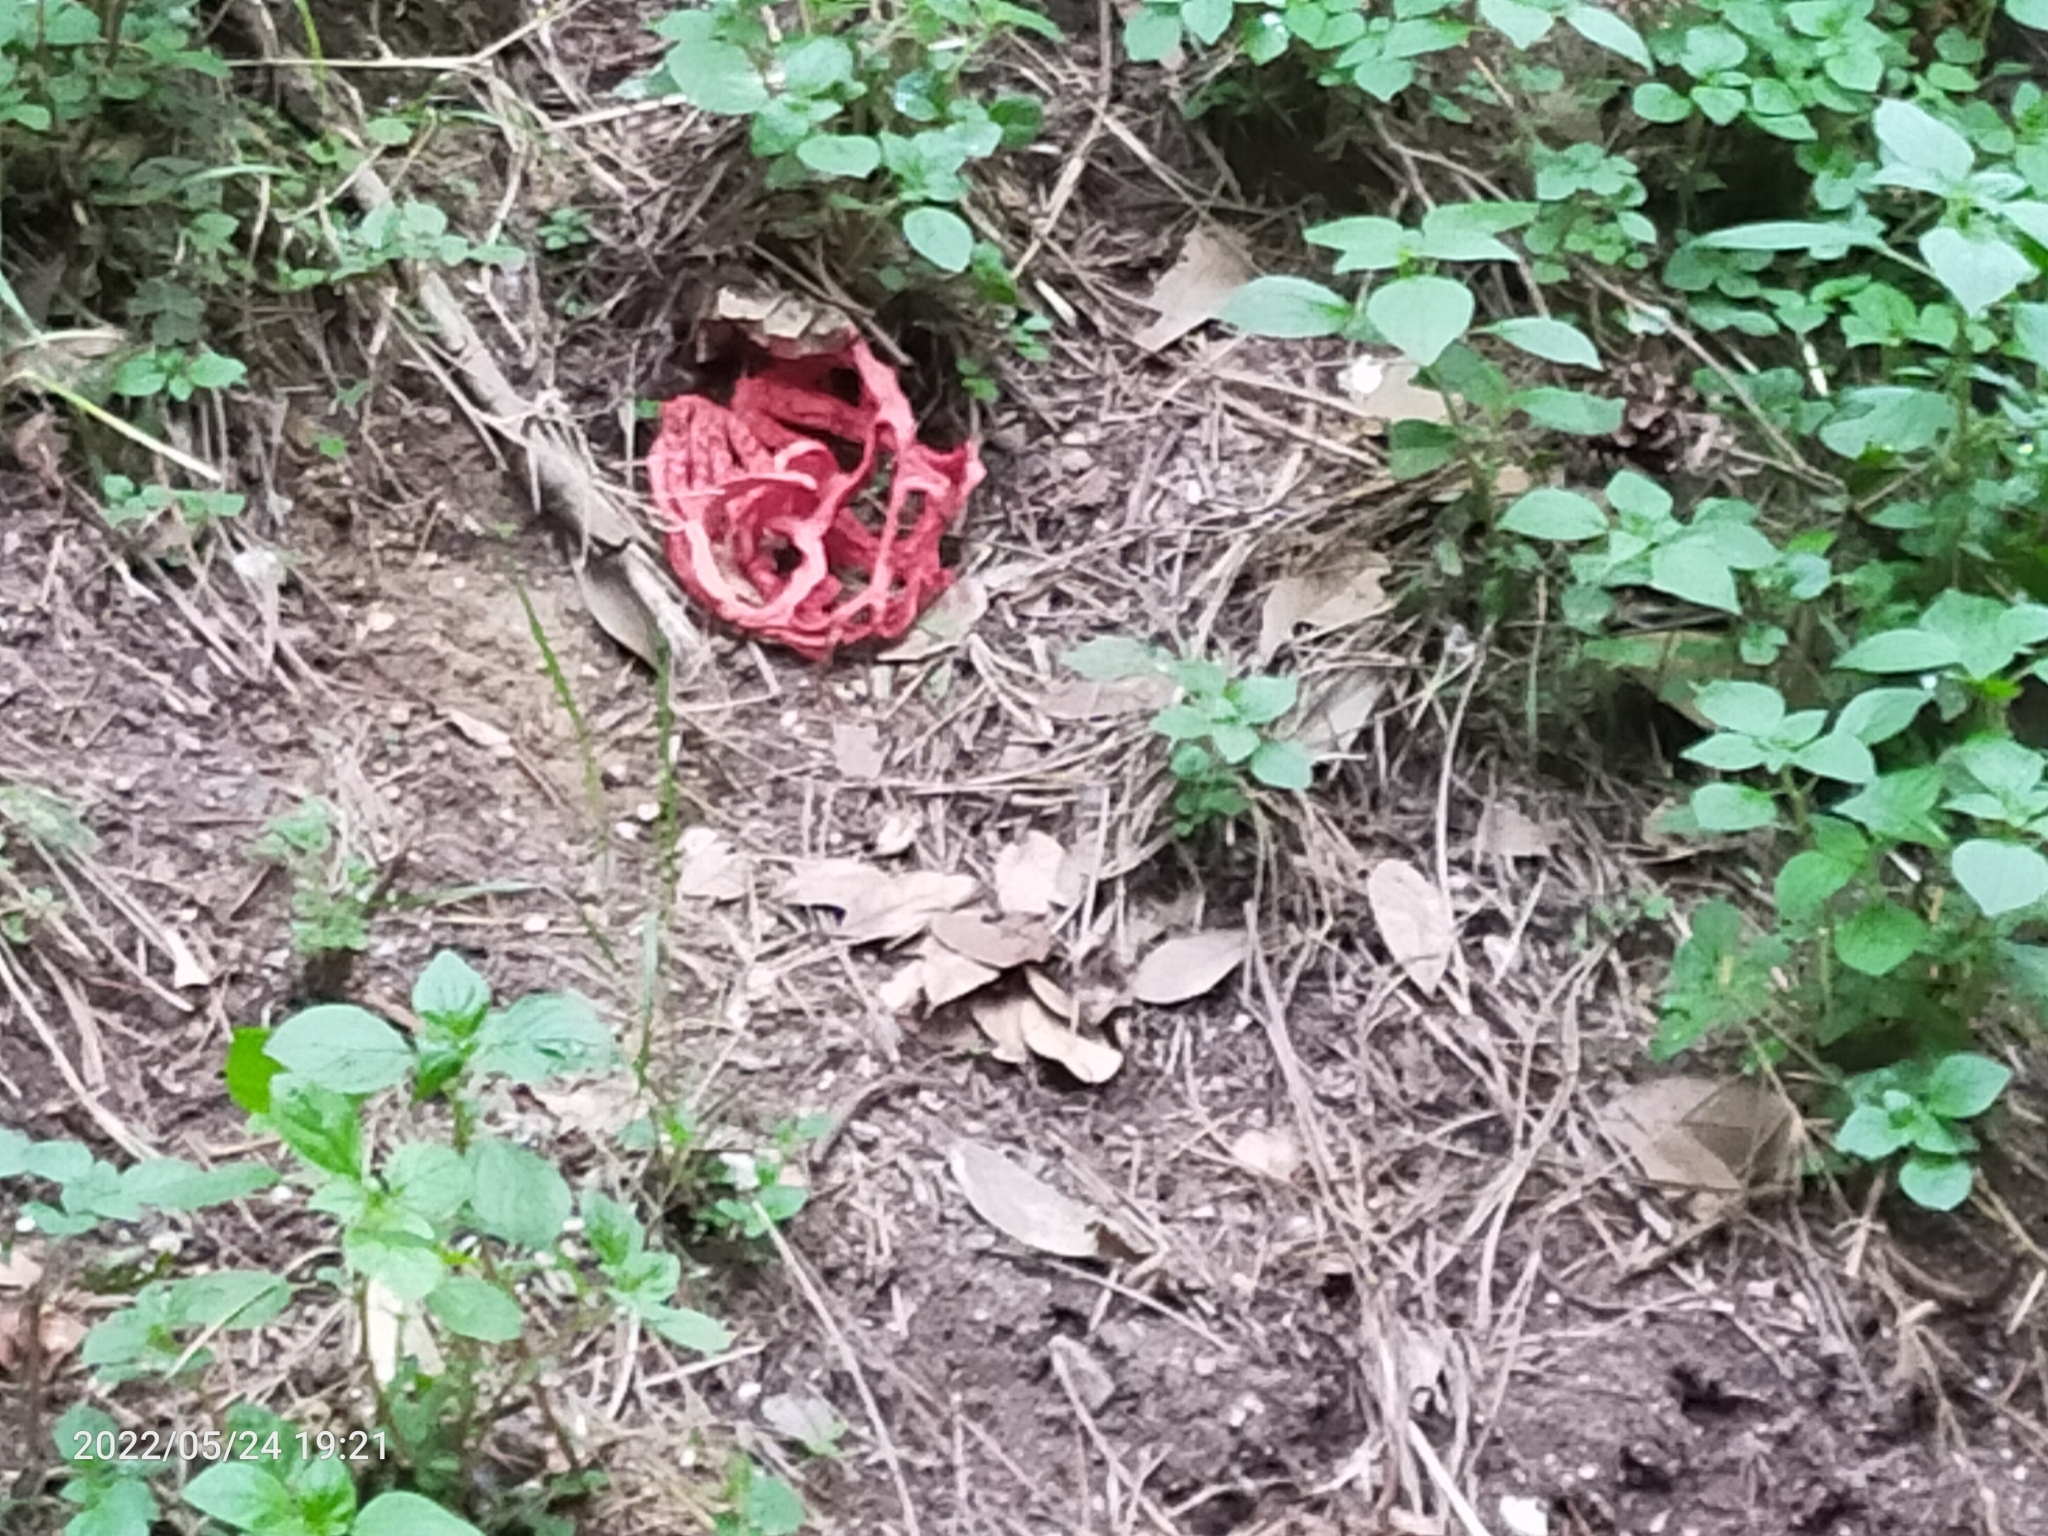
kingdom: Fungi
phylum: Basidiomycota
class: Agaricomycetes
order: Phallales
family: Phallaceae
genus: Clathrus
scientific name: Clathrus ruber
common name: Red cage
